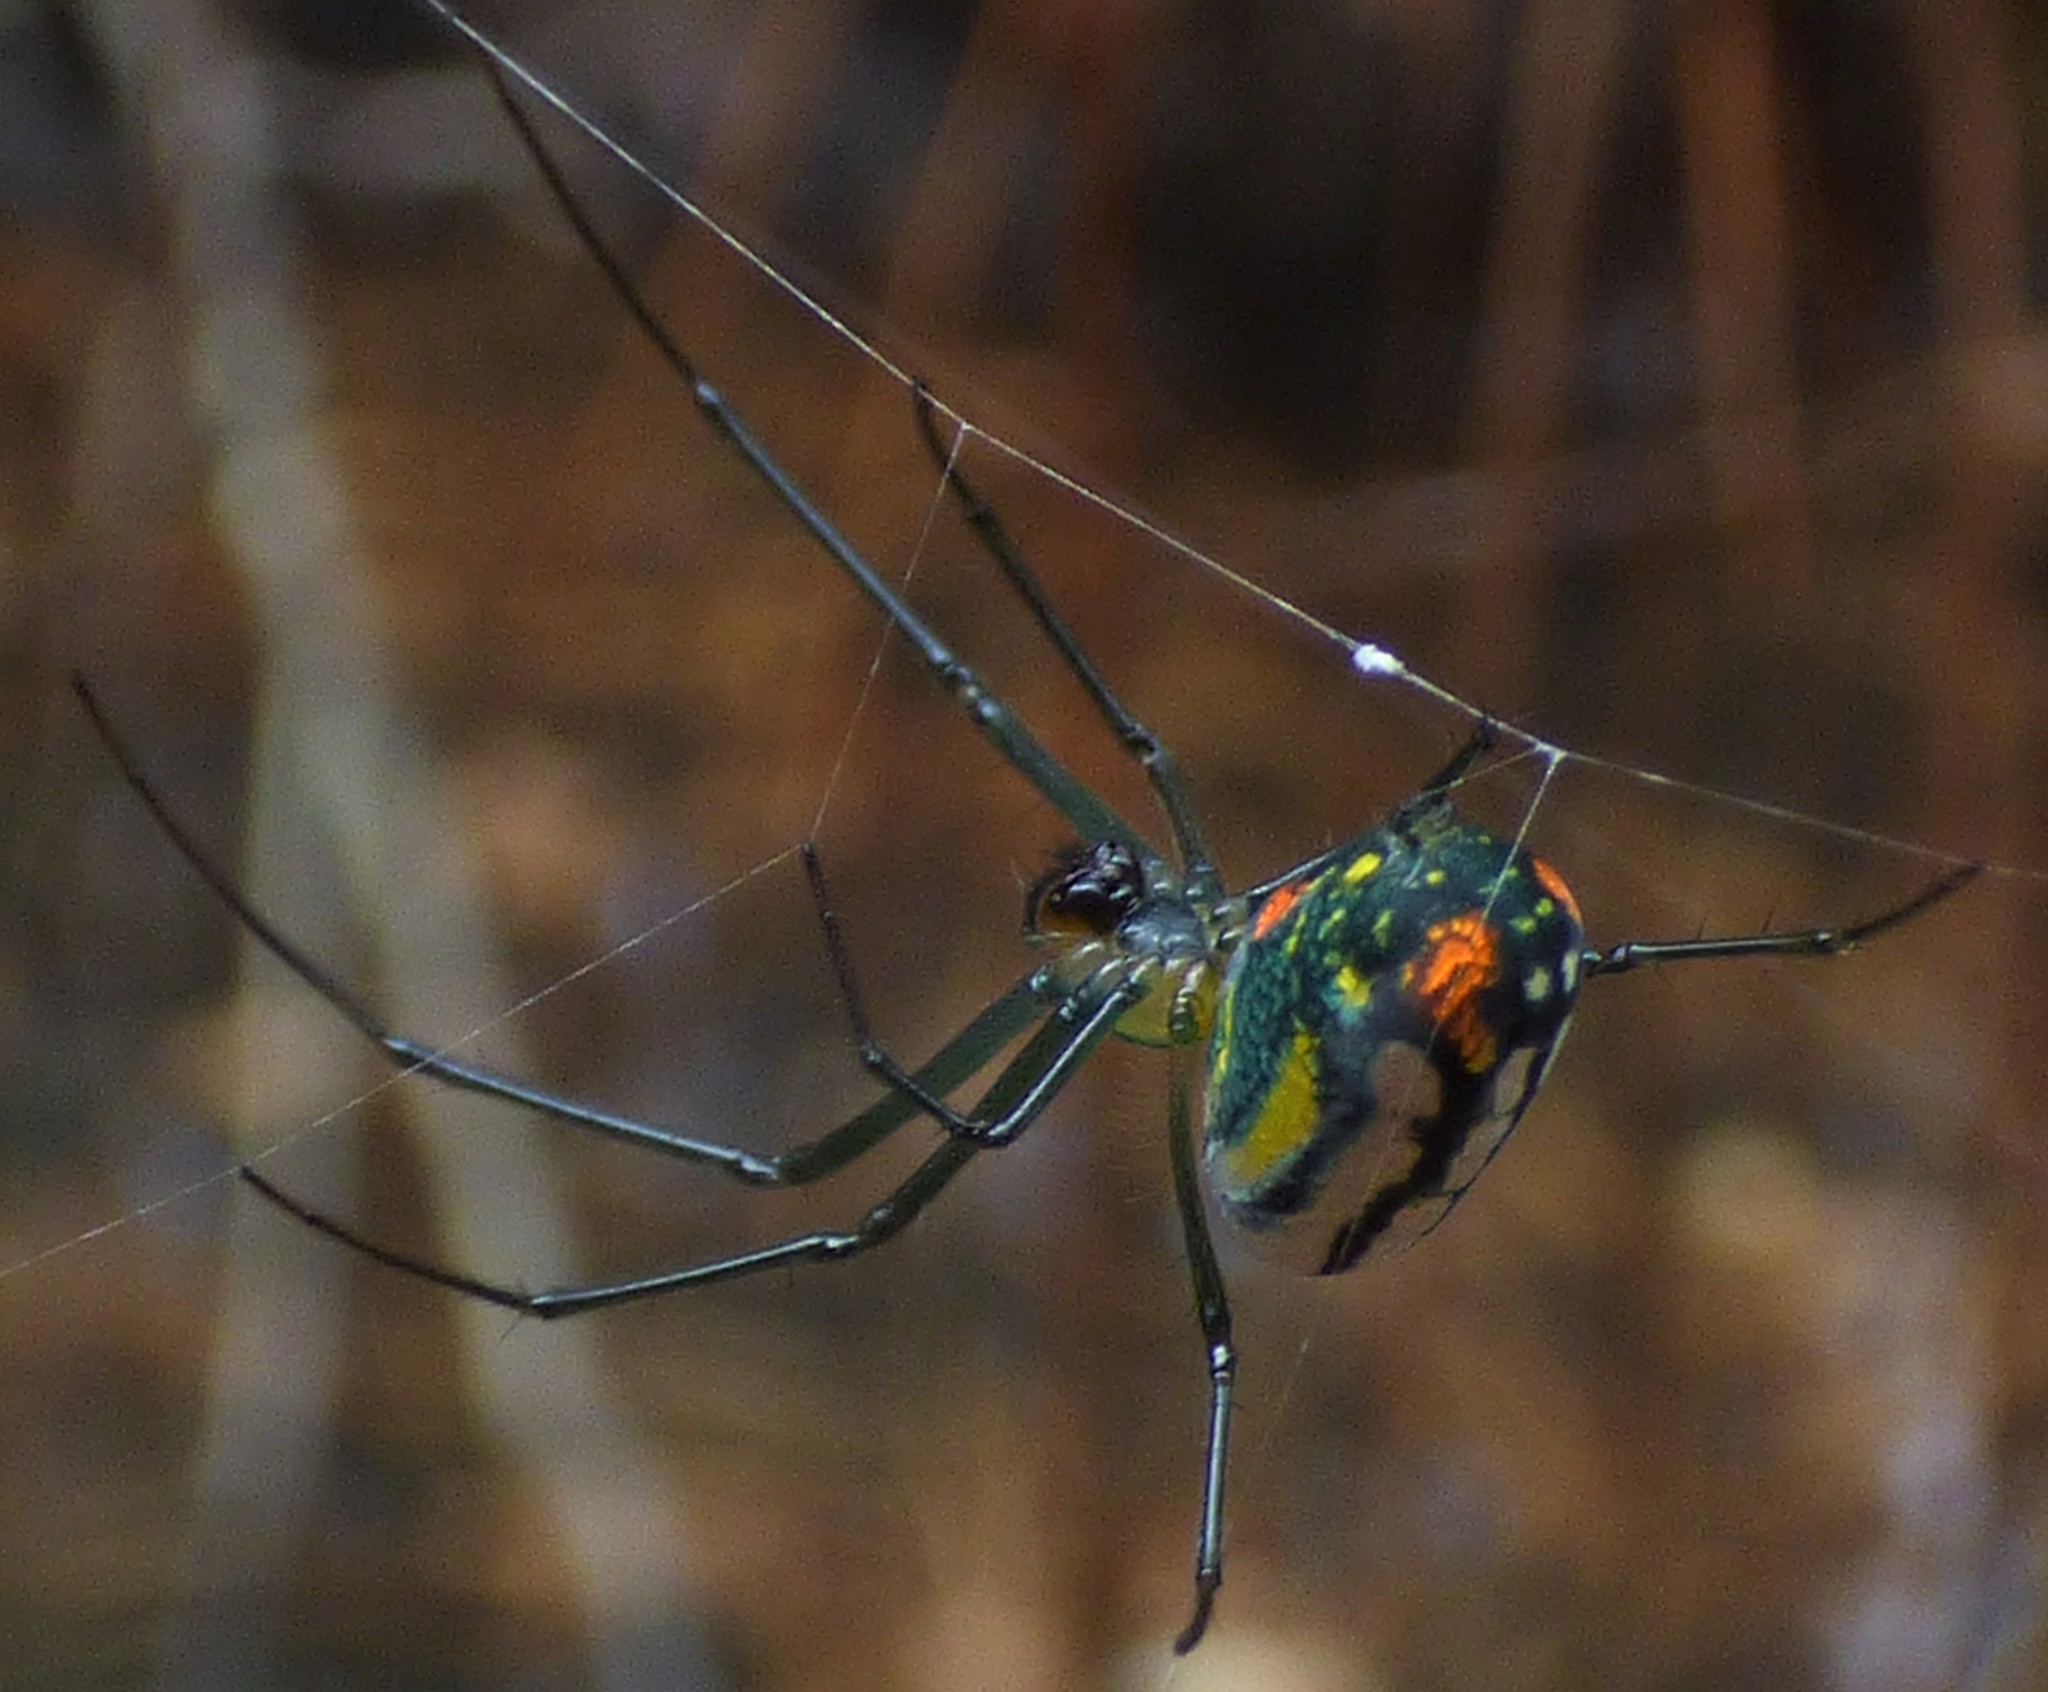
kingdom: Animalia
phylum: Arthropoda
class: Arachnida
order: Araneae
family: Tetragnathidae
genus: Leucauge
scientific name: Leucauge argyrobapta
